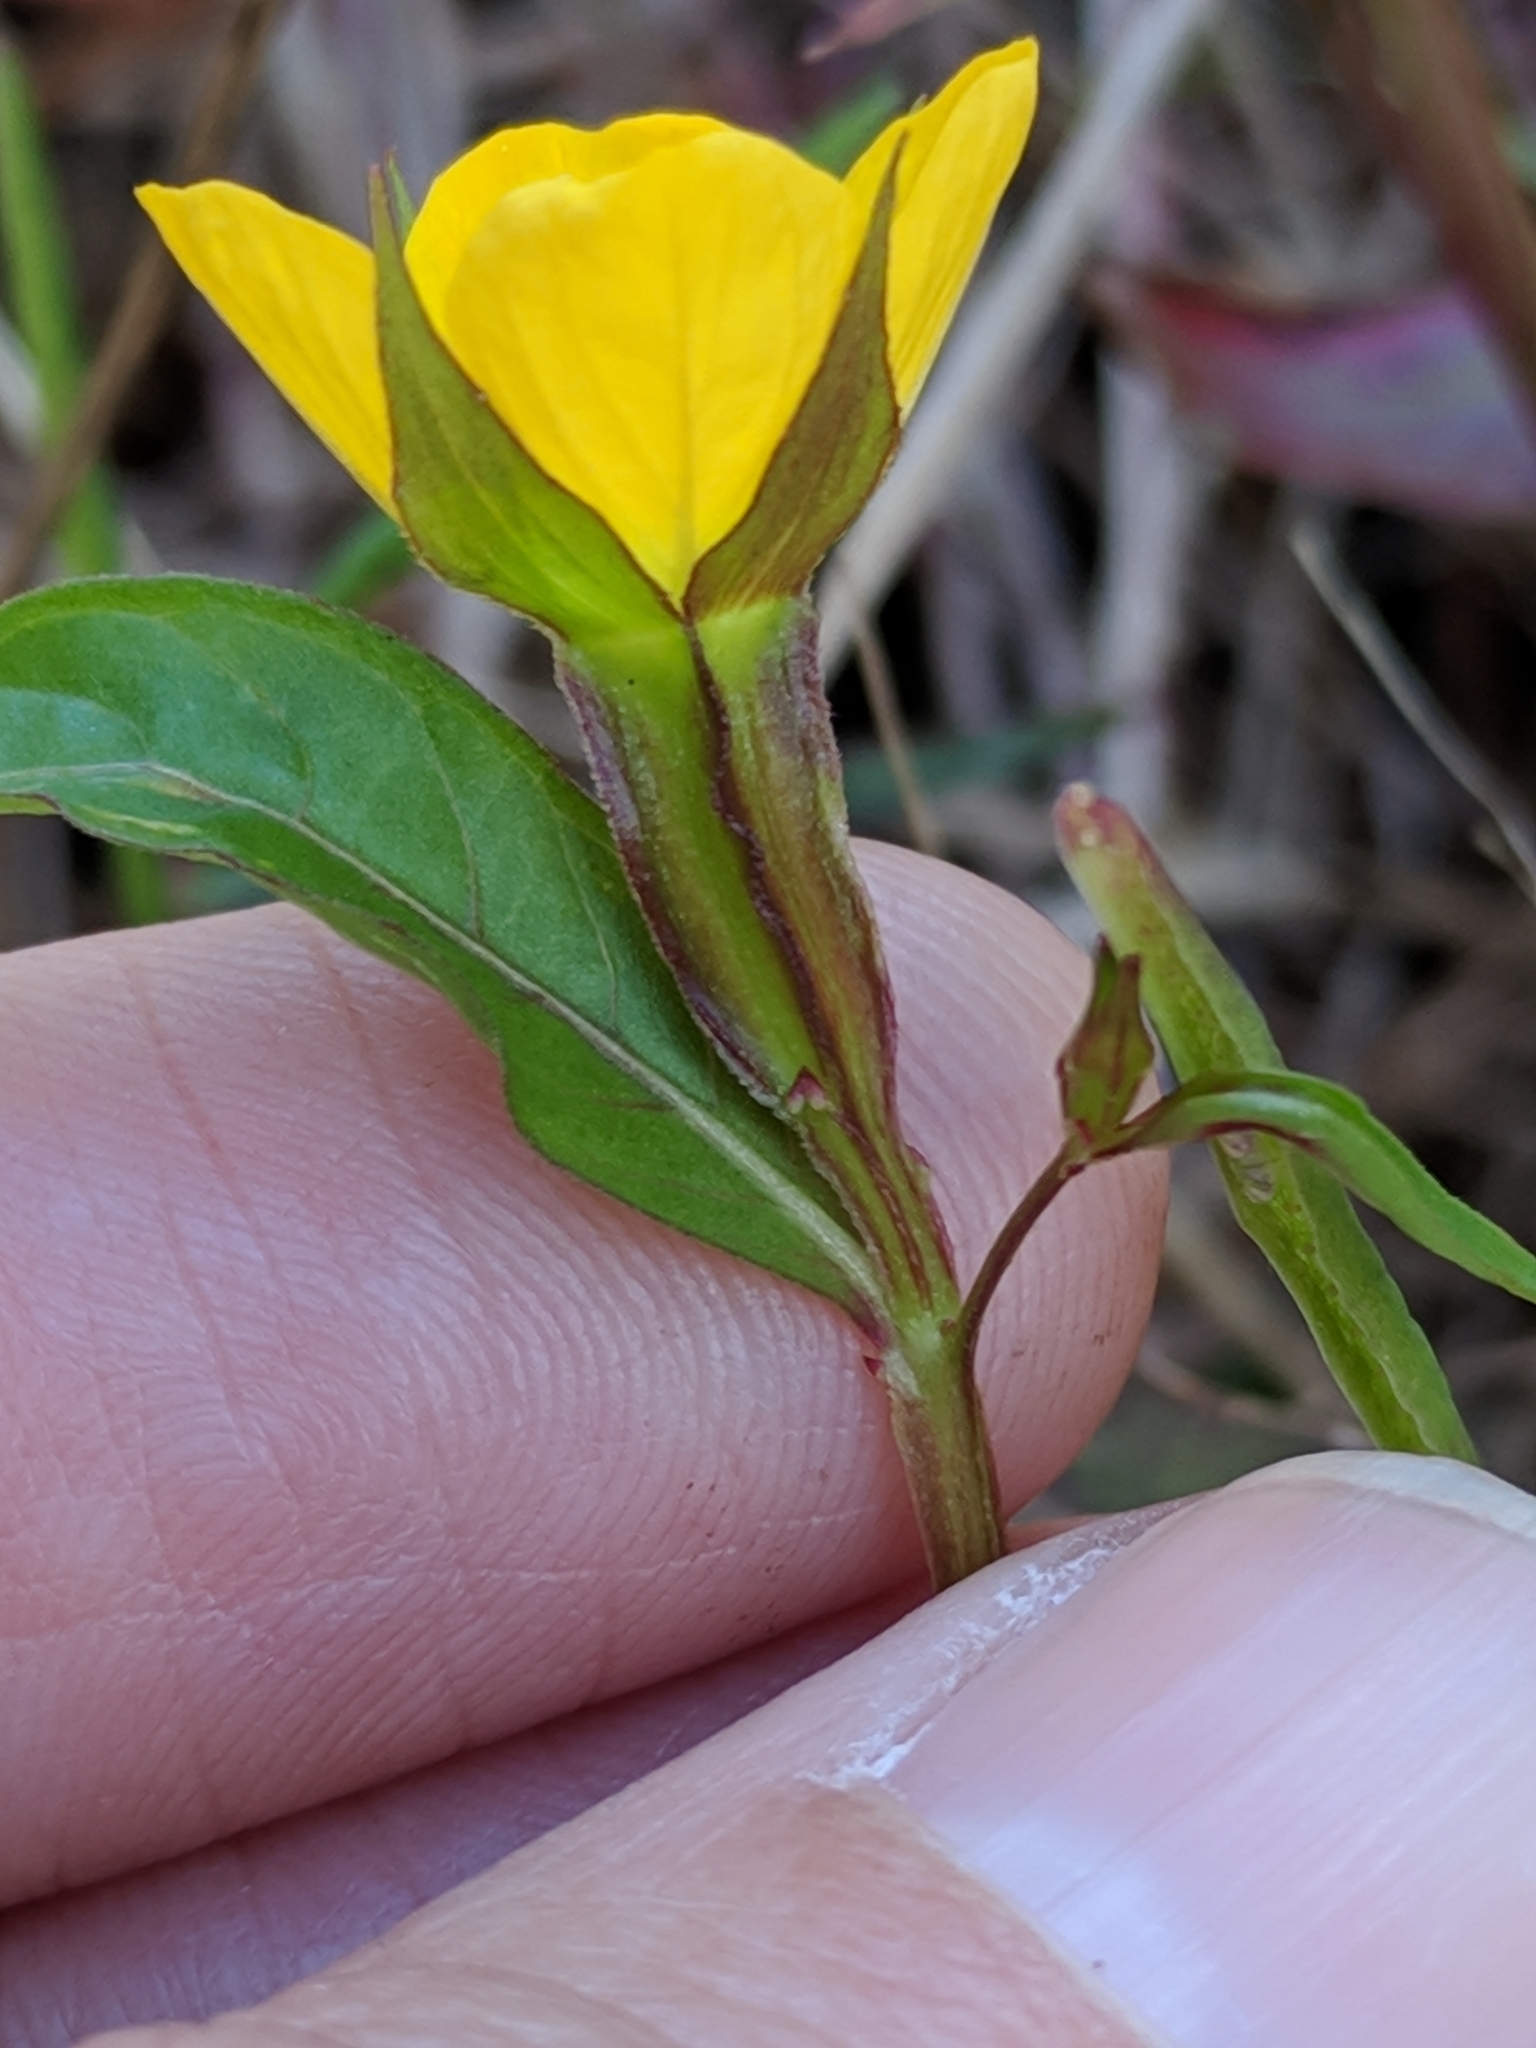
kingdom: Plantae
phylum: Tracheophyta
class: Magnoliopsida
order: Myrtales
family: Onagraceae
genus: Ludwigia
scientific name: Ludwigia decurrens
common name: Winged water-primrose
